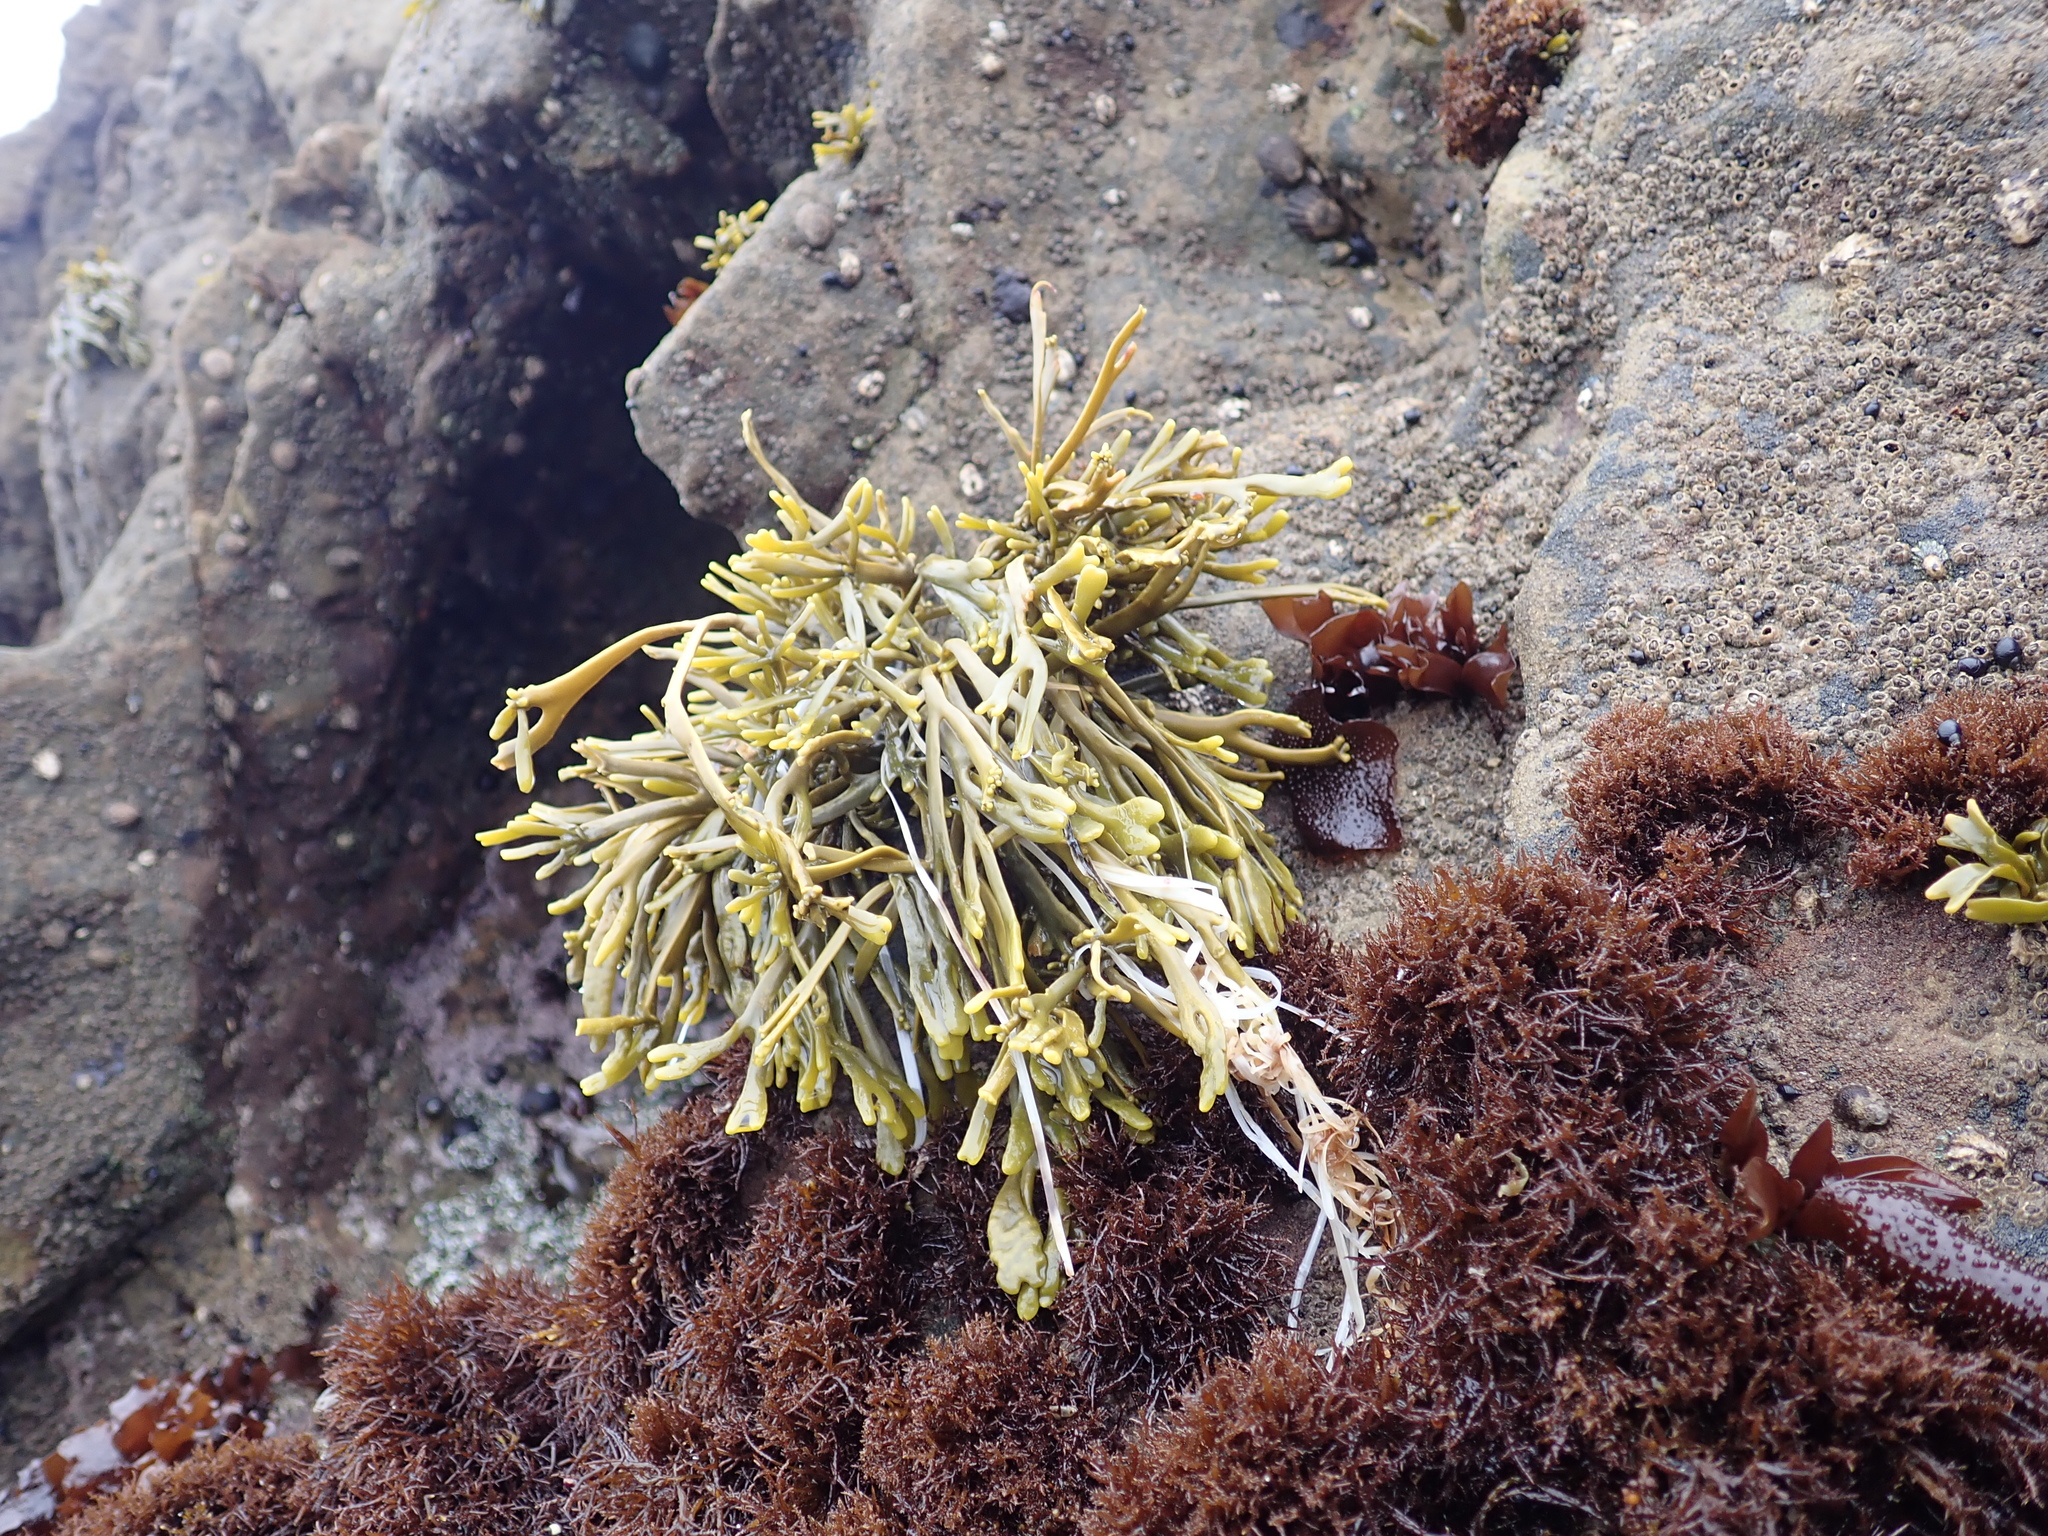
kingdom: Chromista
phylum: Ochrophyta
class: Phaeophyceae
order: Fucales
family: Fucaceae
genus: Silvetia
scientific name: Silvetia
